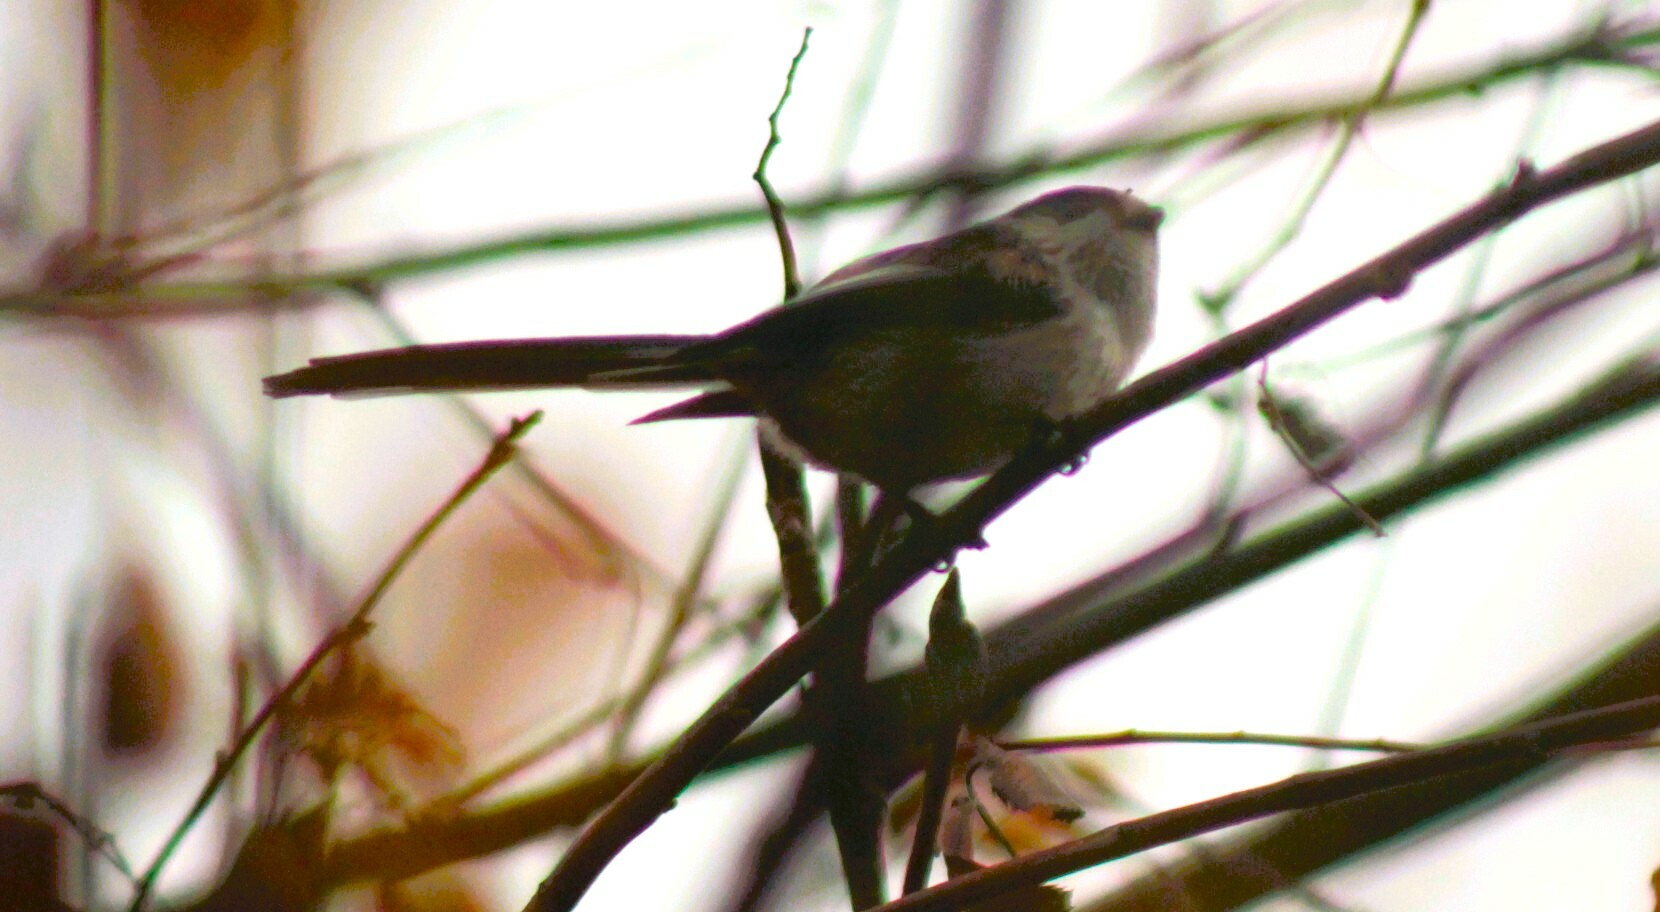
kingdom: Animalia
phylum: Chordata
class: Aves
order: Passeriformes
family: Aegithalidae
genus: Aegithalos
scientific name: Aegithalos caudatus
